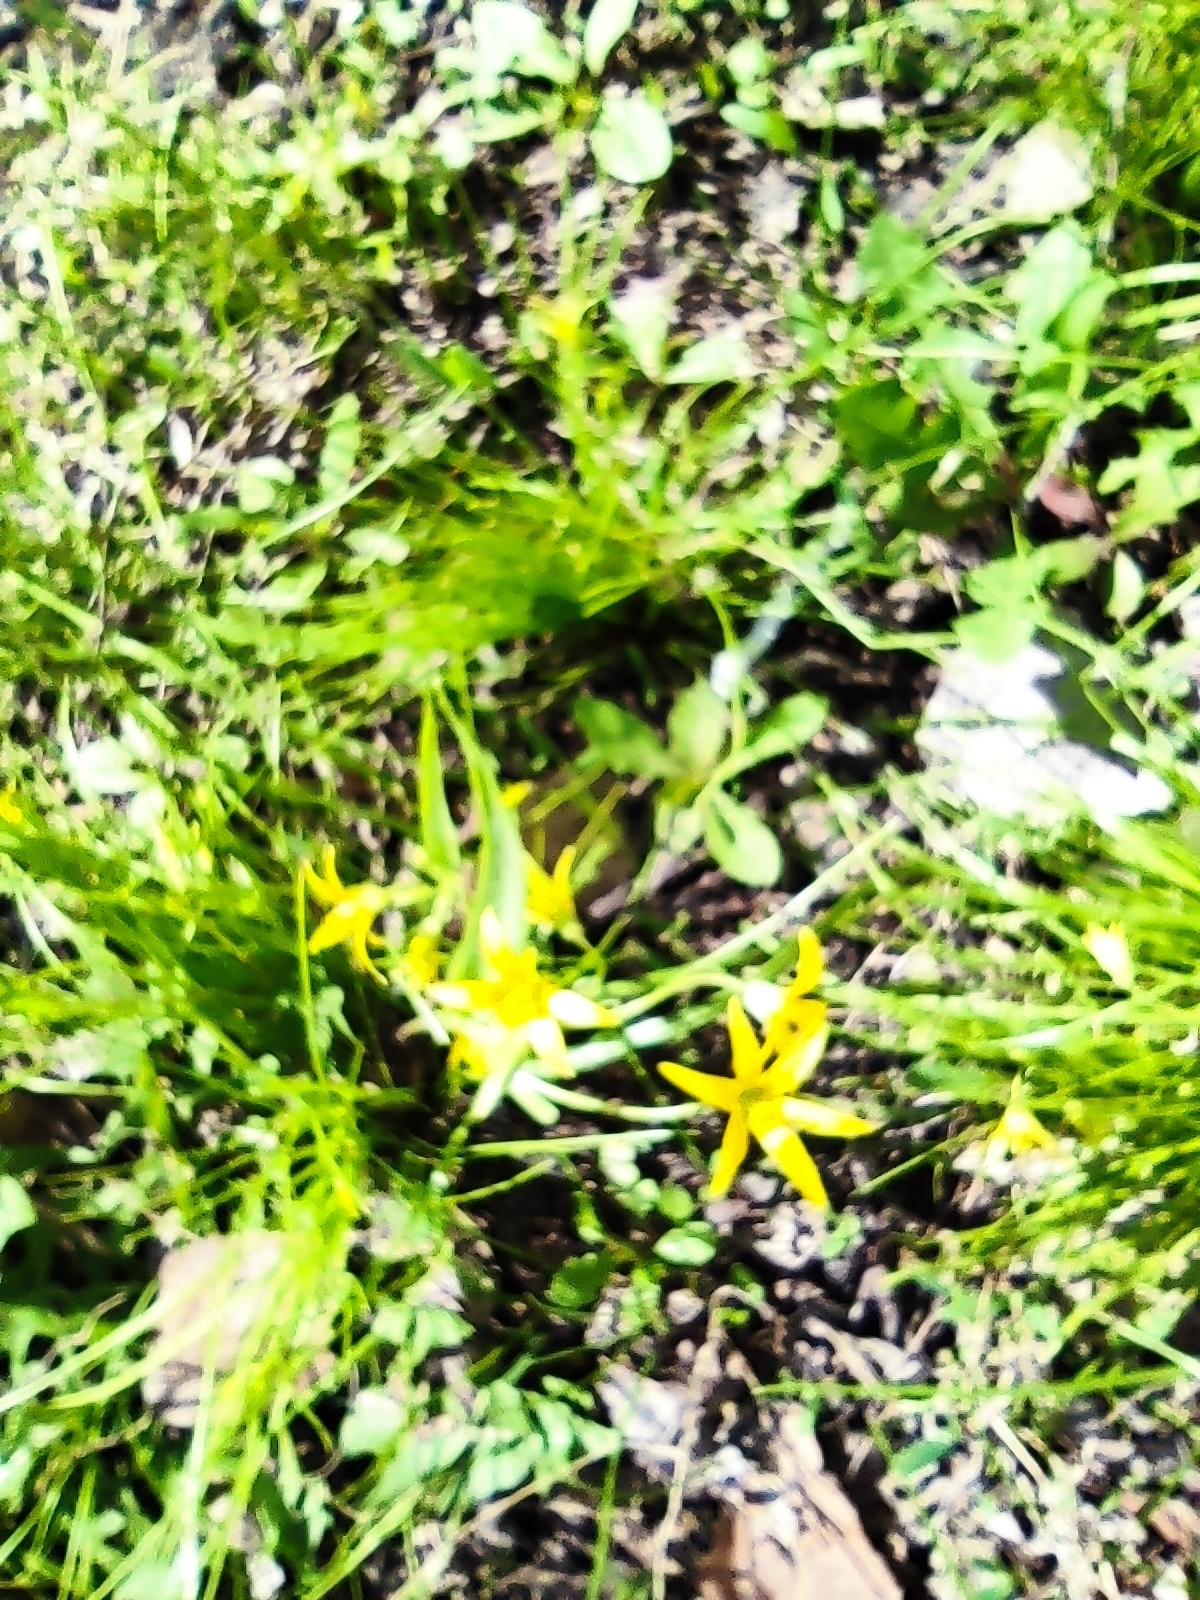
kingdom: Plantae
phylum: Tracheophyta
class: Liliopsida
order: Liliales
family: Liliaceae
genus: Gagea
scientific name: Gagea minima
